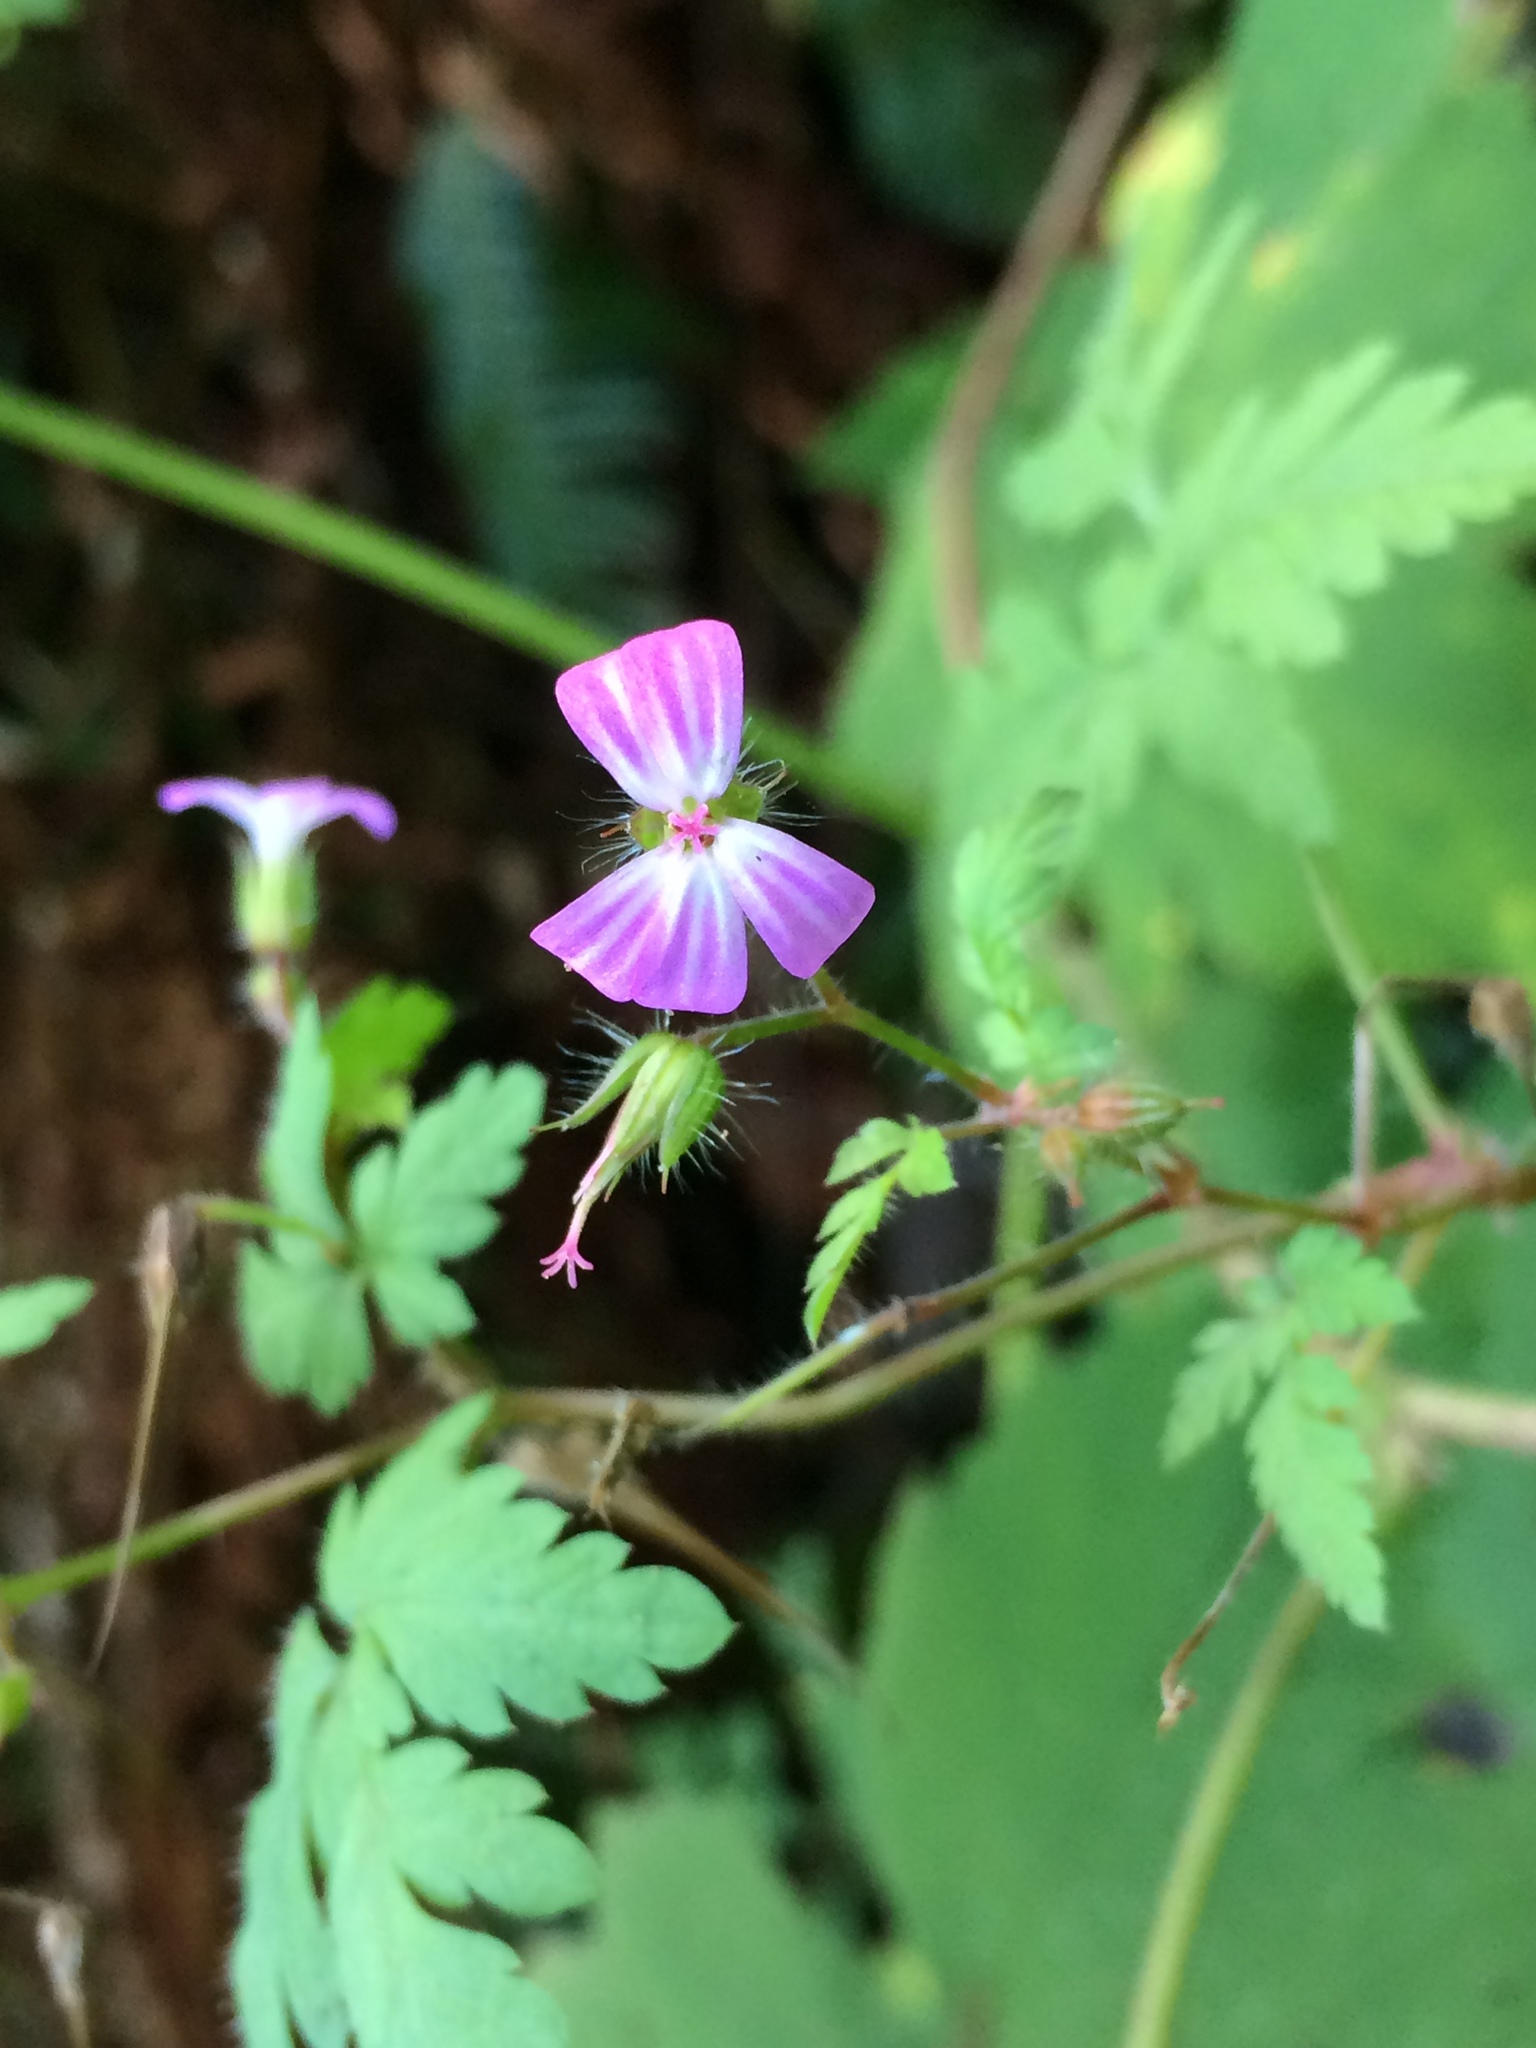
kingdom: Plantae
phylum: Tracheophyta
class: Magnoliopsida
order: Geraniales
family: Geraniaceae
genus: Geranium
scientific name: Geranium robertianum
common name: Herb-robert
